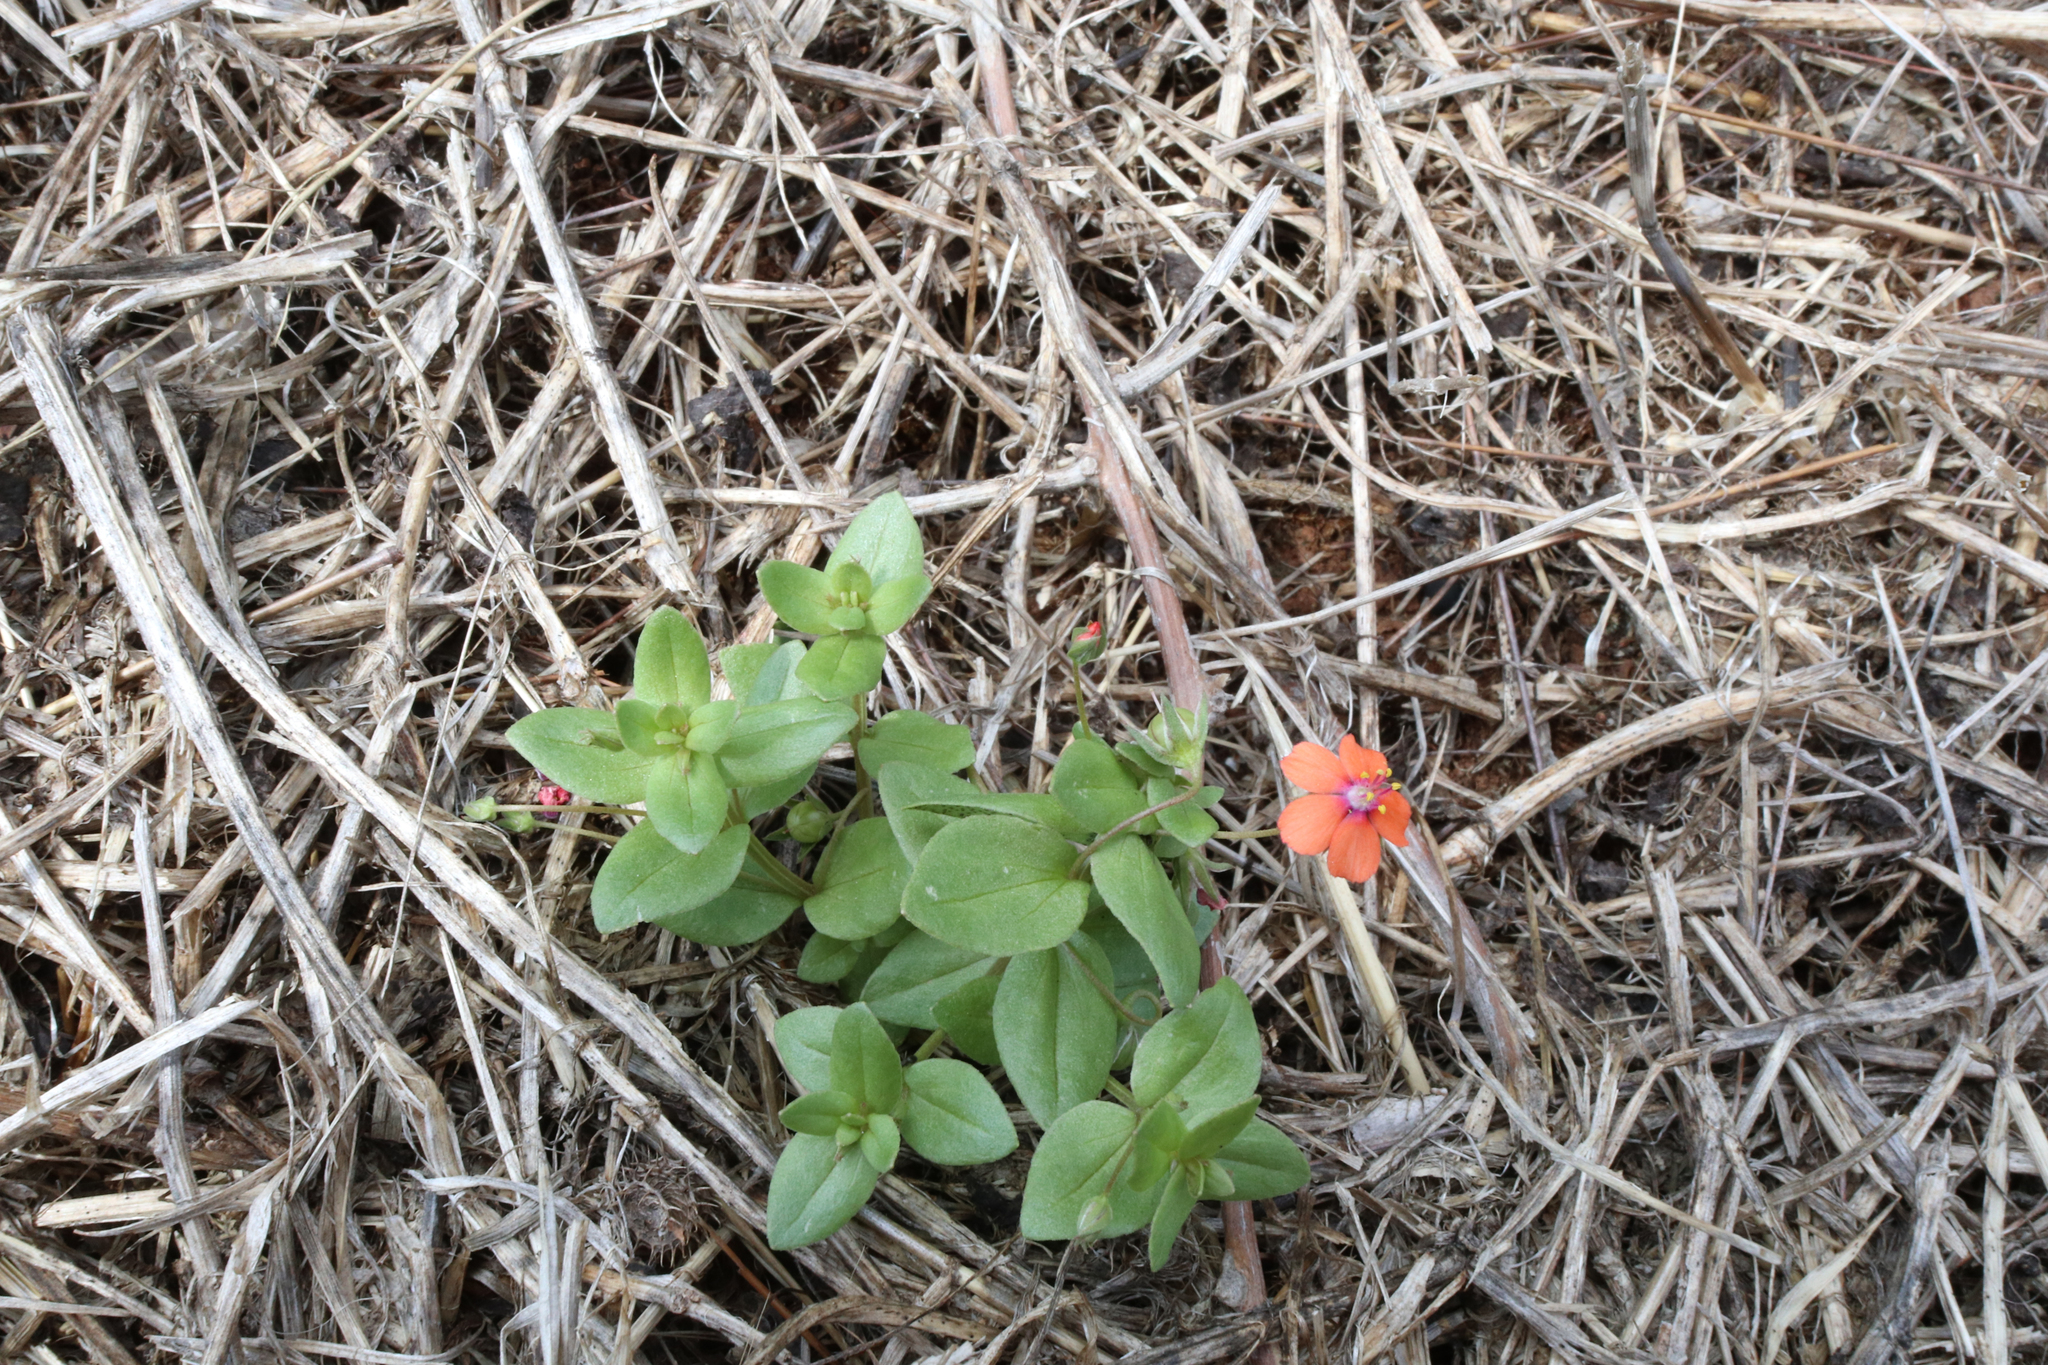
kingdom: Plantae
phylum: Tracheophyta
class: Magnoliopsida
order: Ericales
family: Primulaceae
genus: Lysimachia
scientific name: Lysimachia arvensis
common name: Scarlet pimpernel
